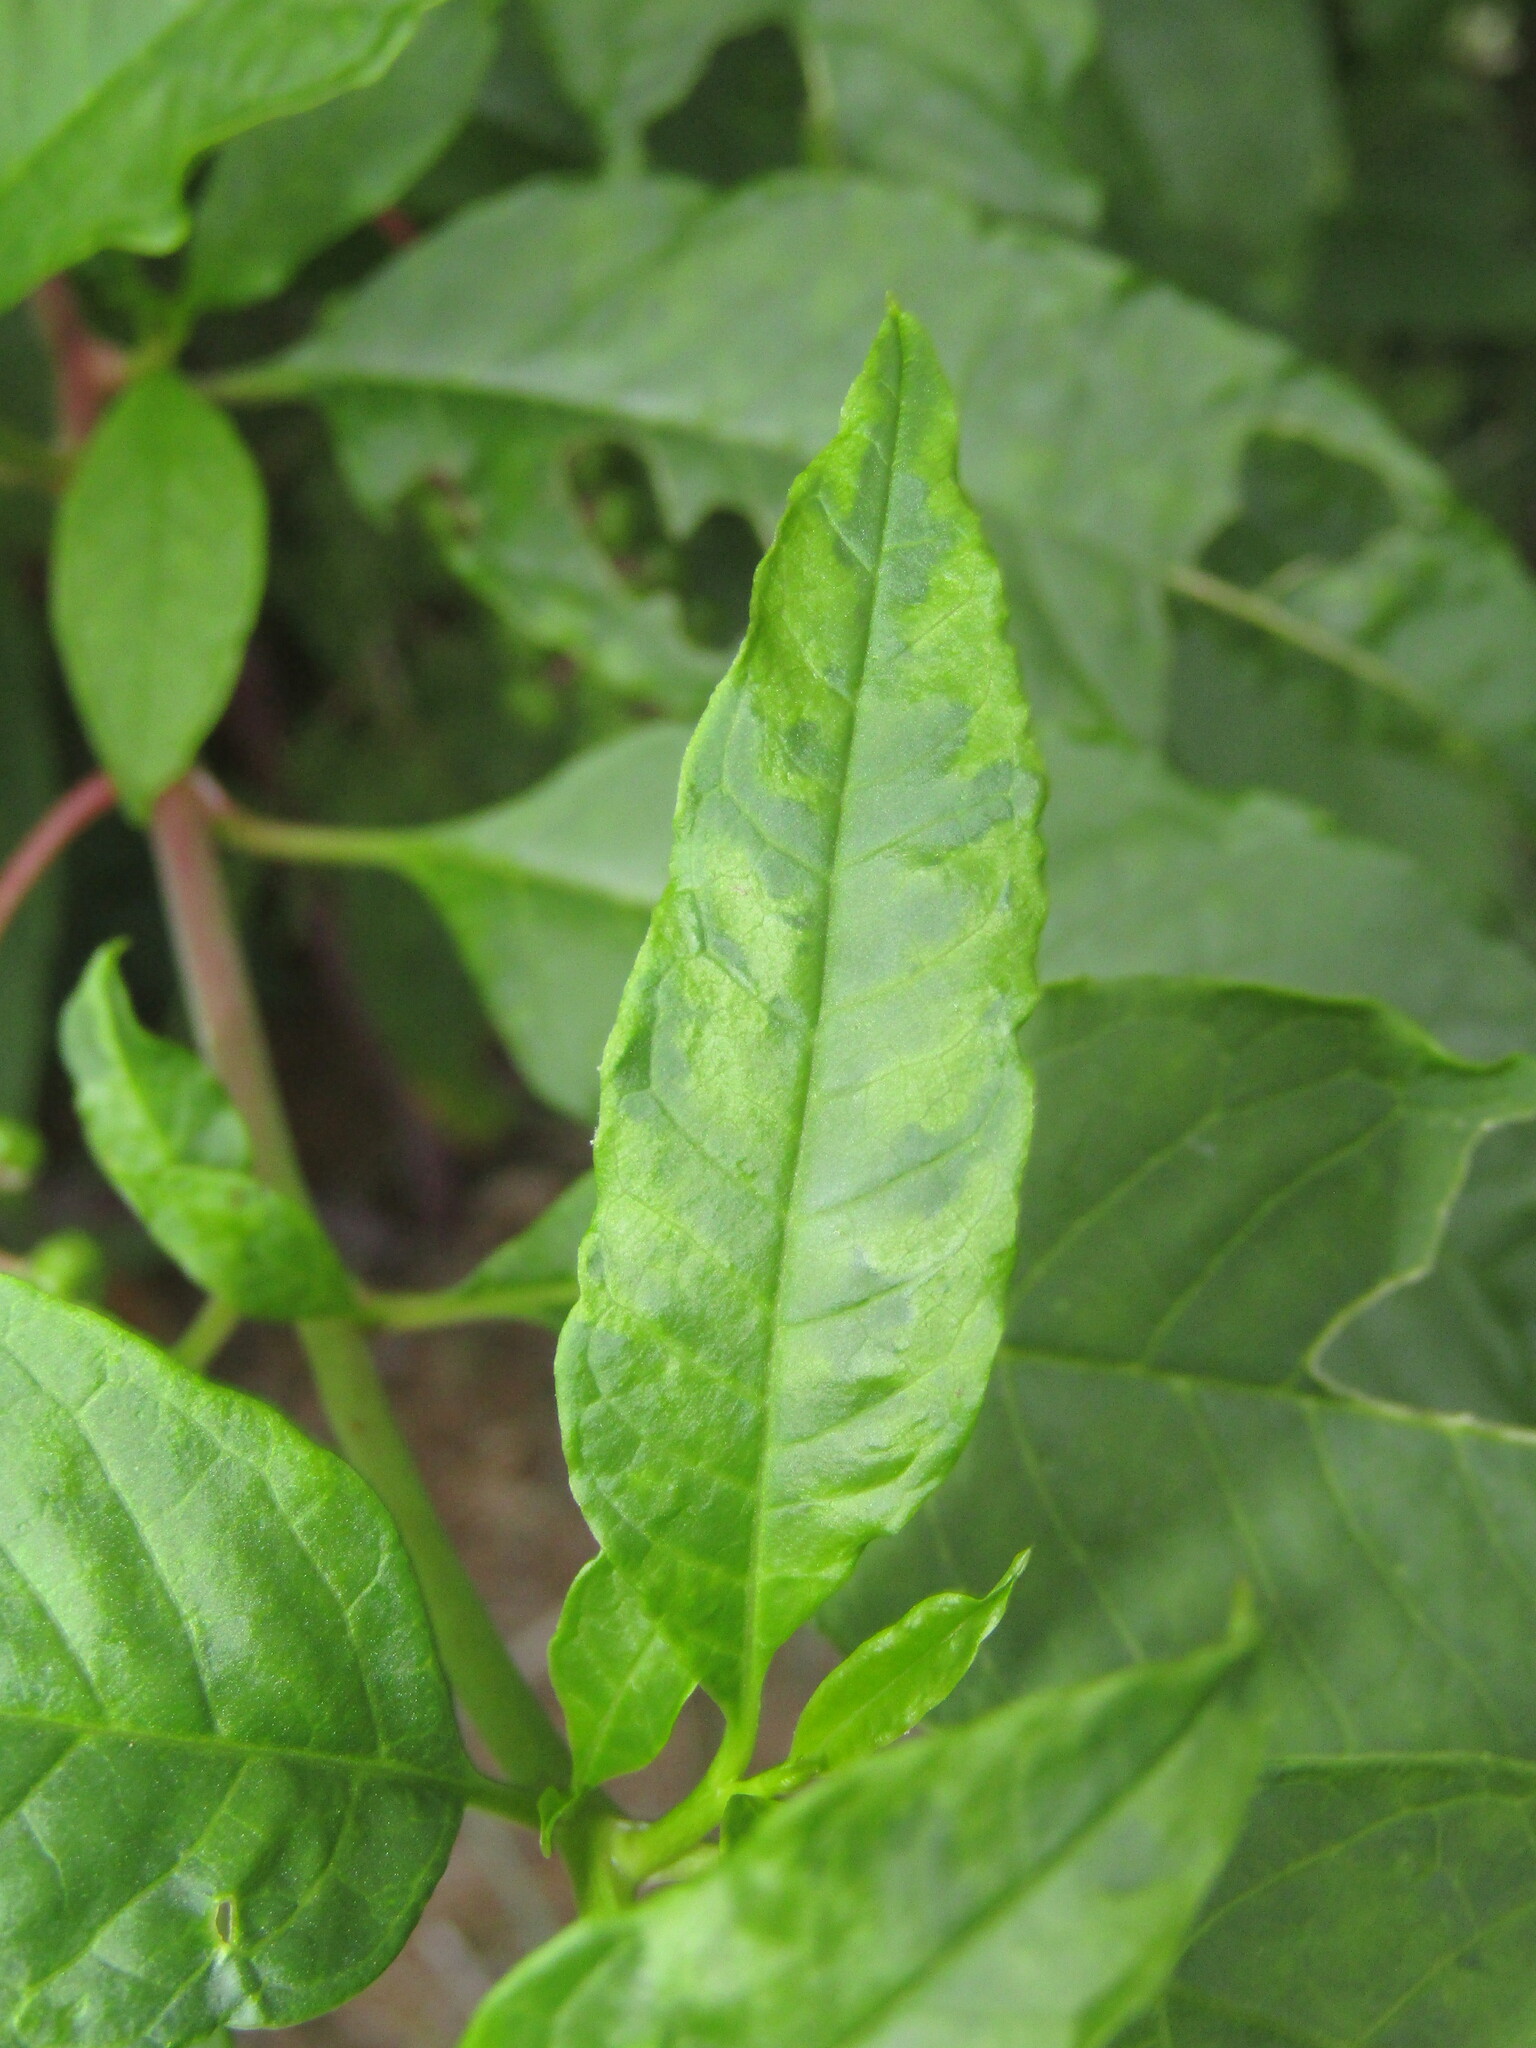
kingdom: Viruses
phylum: Pisuviricota
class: Stelpaviricetes
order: Patatavirales
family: Potyviridae
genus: Potyvirus
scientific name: Potyvirus Pokeweed mosaic virus
